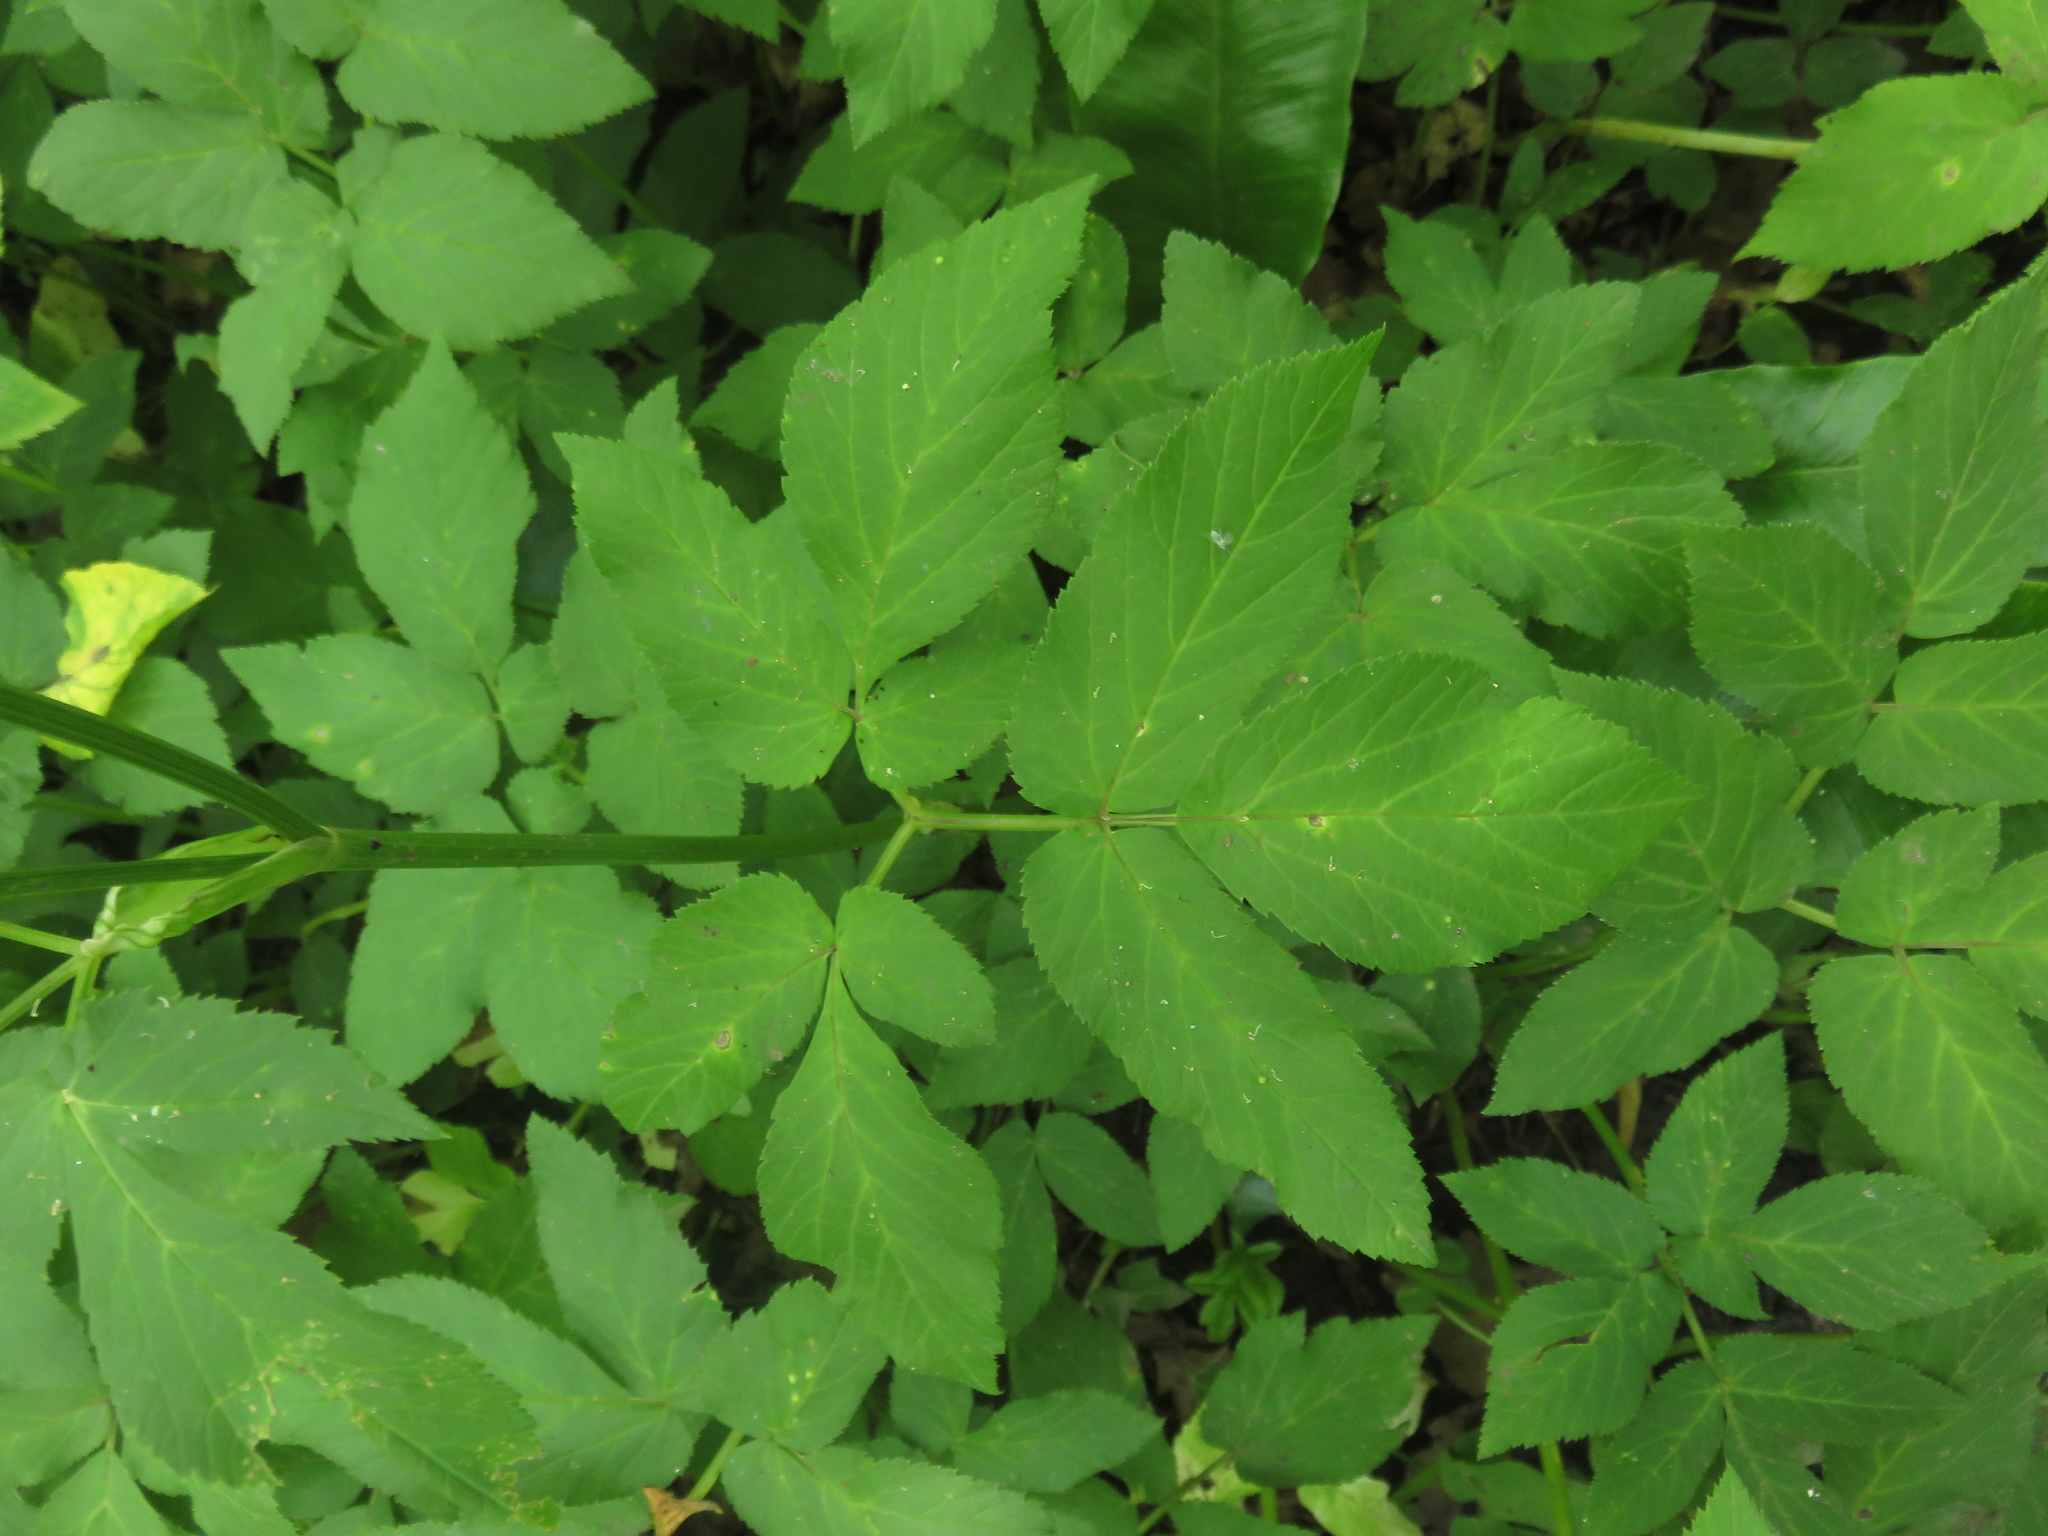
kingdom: Plantae
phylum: Tracheophyta
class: Magnoliopsida
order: Apiales
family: Apiaceae
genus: Aegopodium
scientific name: Aegopodium podagraria
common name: Ground-elder
